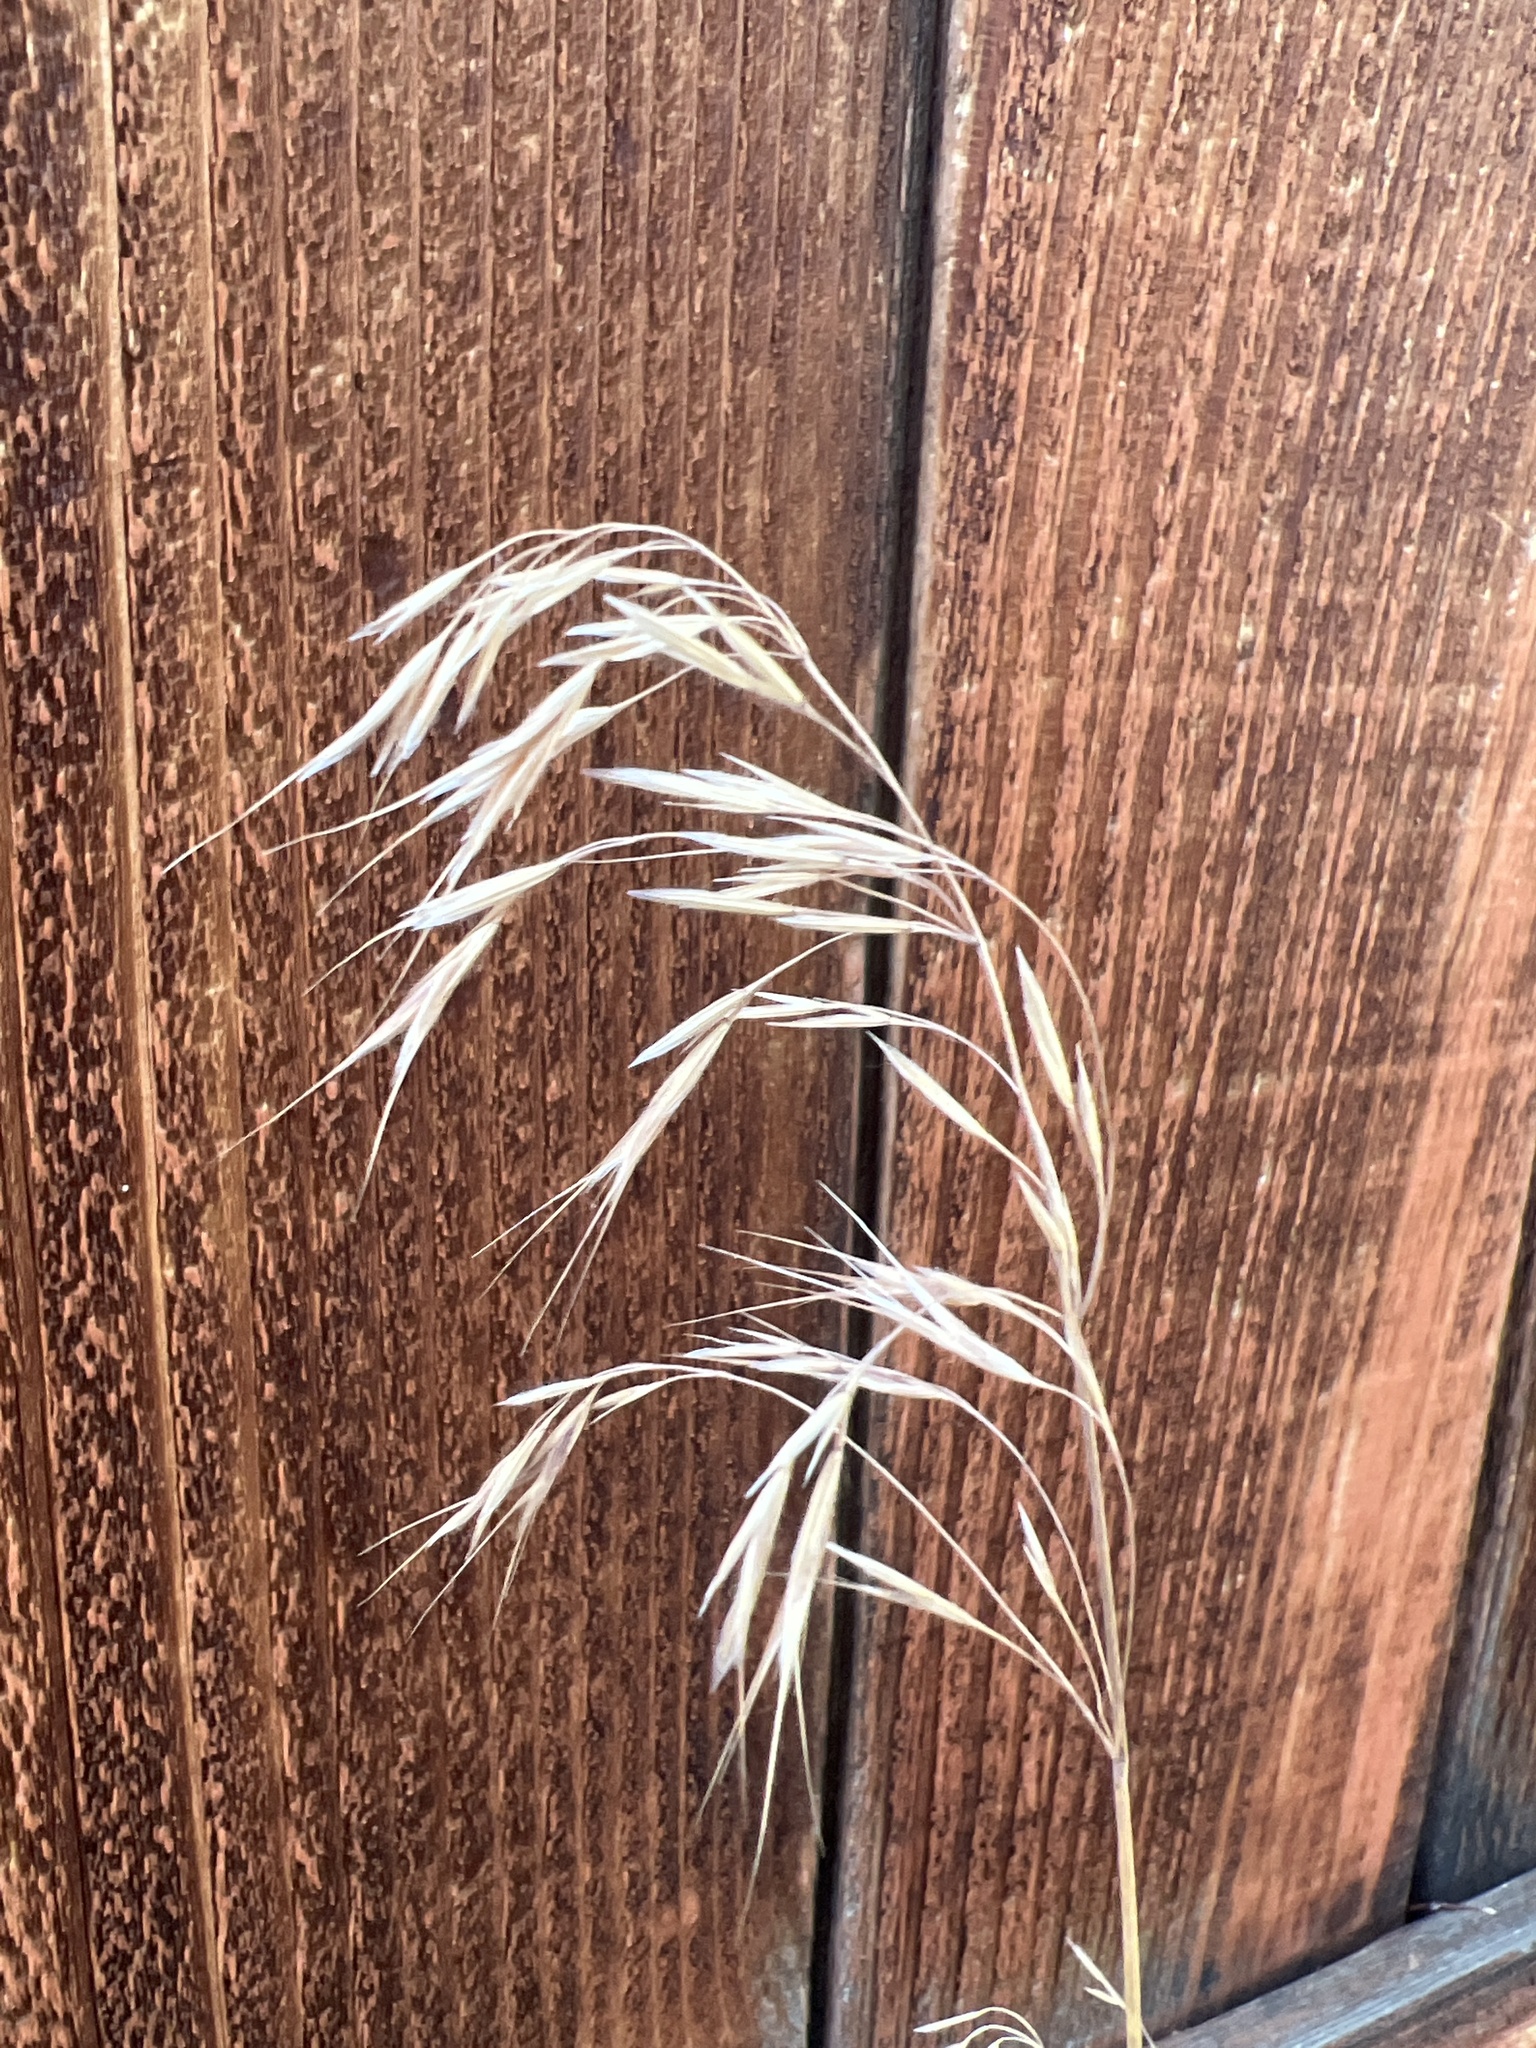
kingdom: Plantae
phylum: Tracheophyta
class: Liliopsida
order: Poales
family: Poaceae
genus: Bromus
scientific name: Bromus tectorum
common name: Cheatgrass
